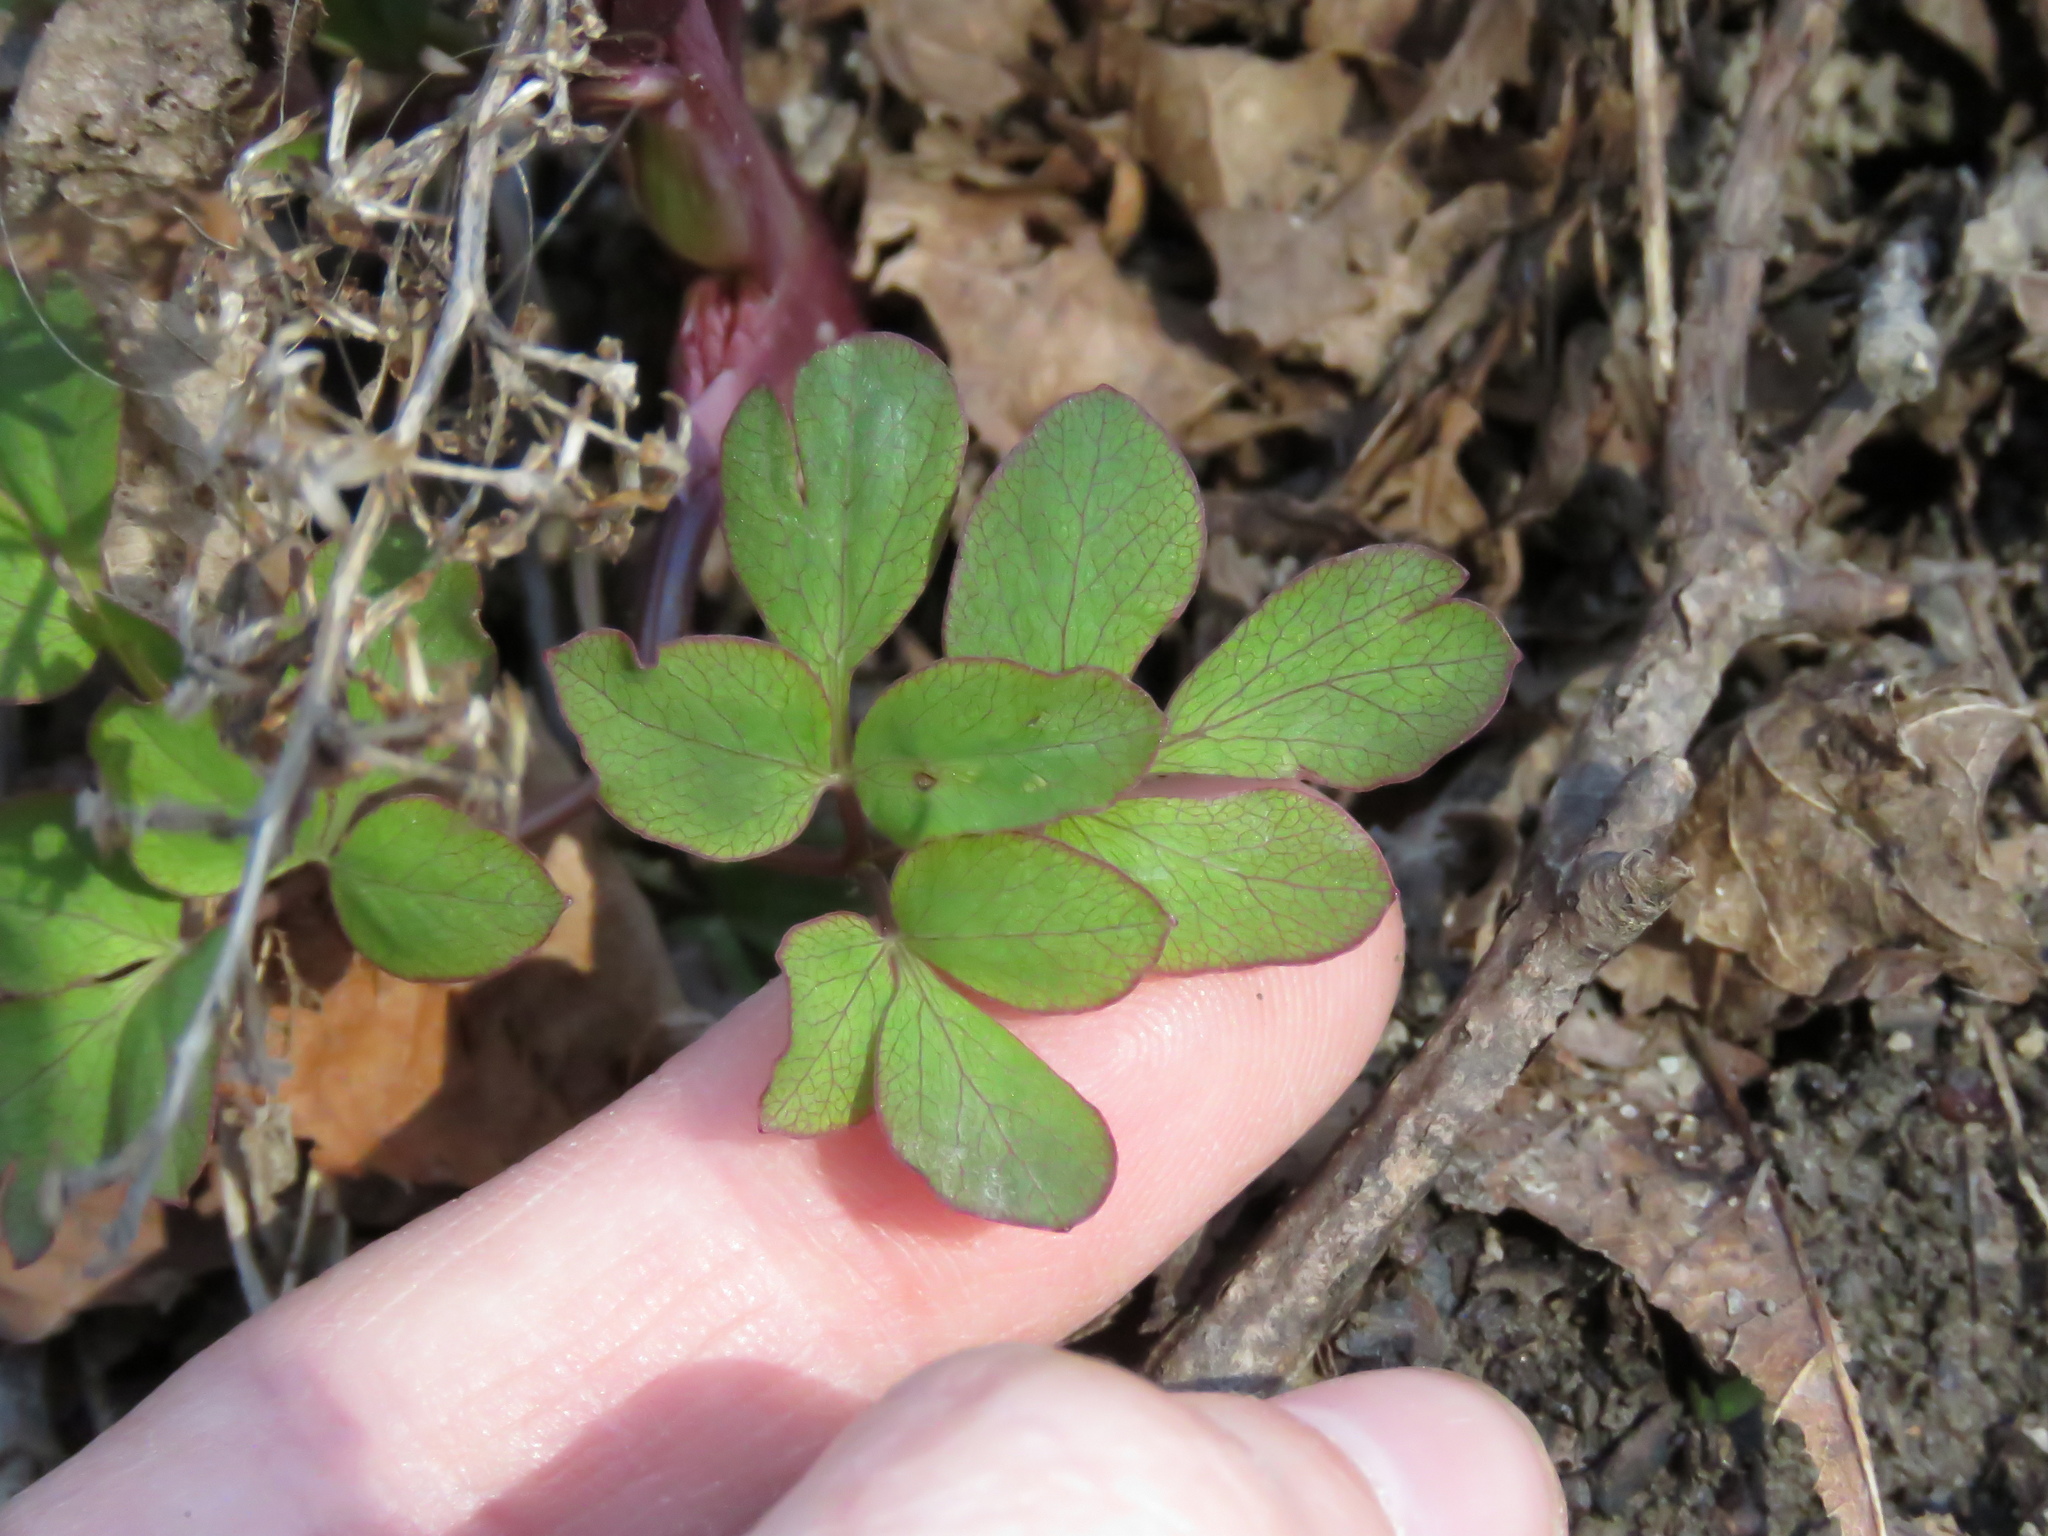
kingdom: Plantae
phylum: Tracheophyta
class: Magnoliopsida
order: Apiales
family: Apiaceae
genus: Taenidia
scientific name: Taenidia integerrima
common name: Golden alexander
